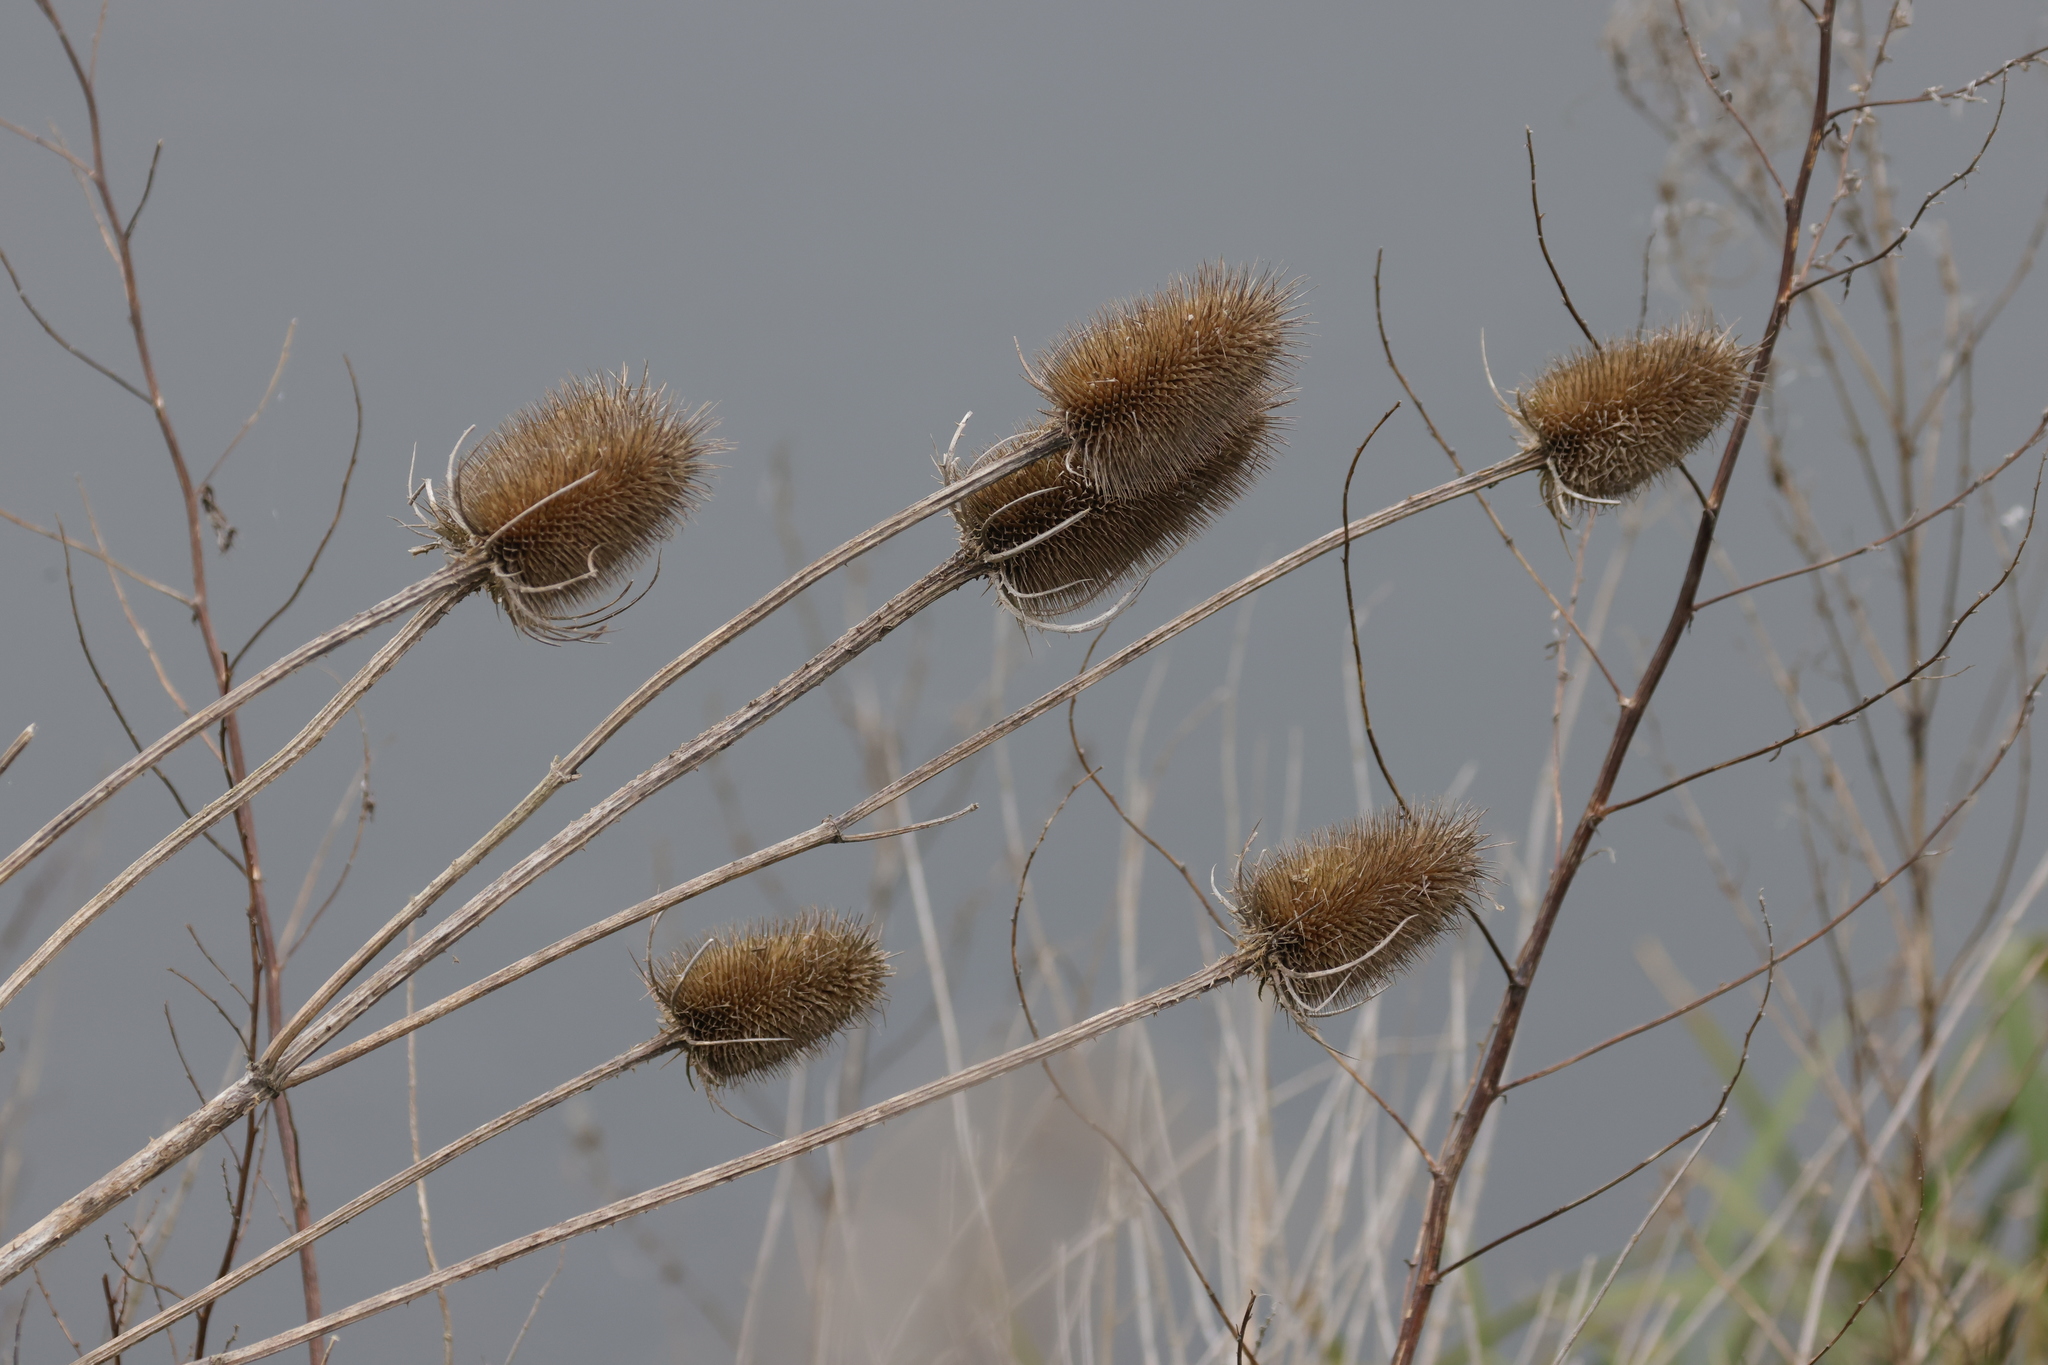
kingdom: Plantae
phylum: Tracheophyta
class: Magnoliopsida
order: Dipsacales
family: Caprifoliaceae
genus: Dipsacus
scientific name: Dipsacus fullonum
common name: Teasel
